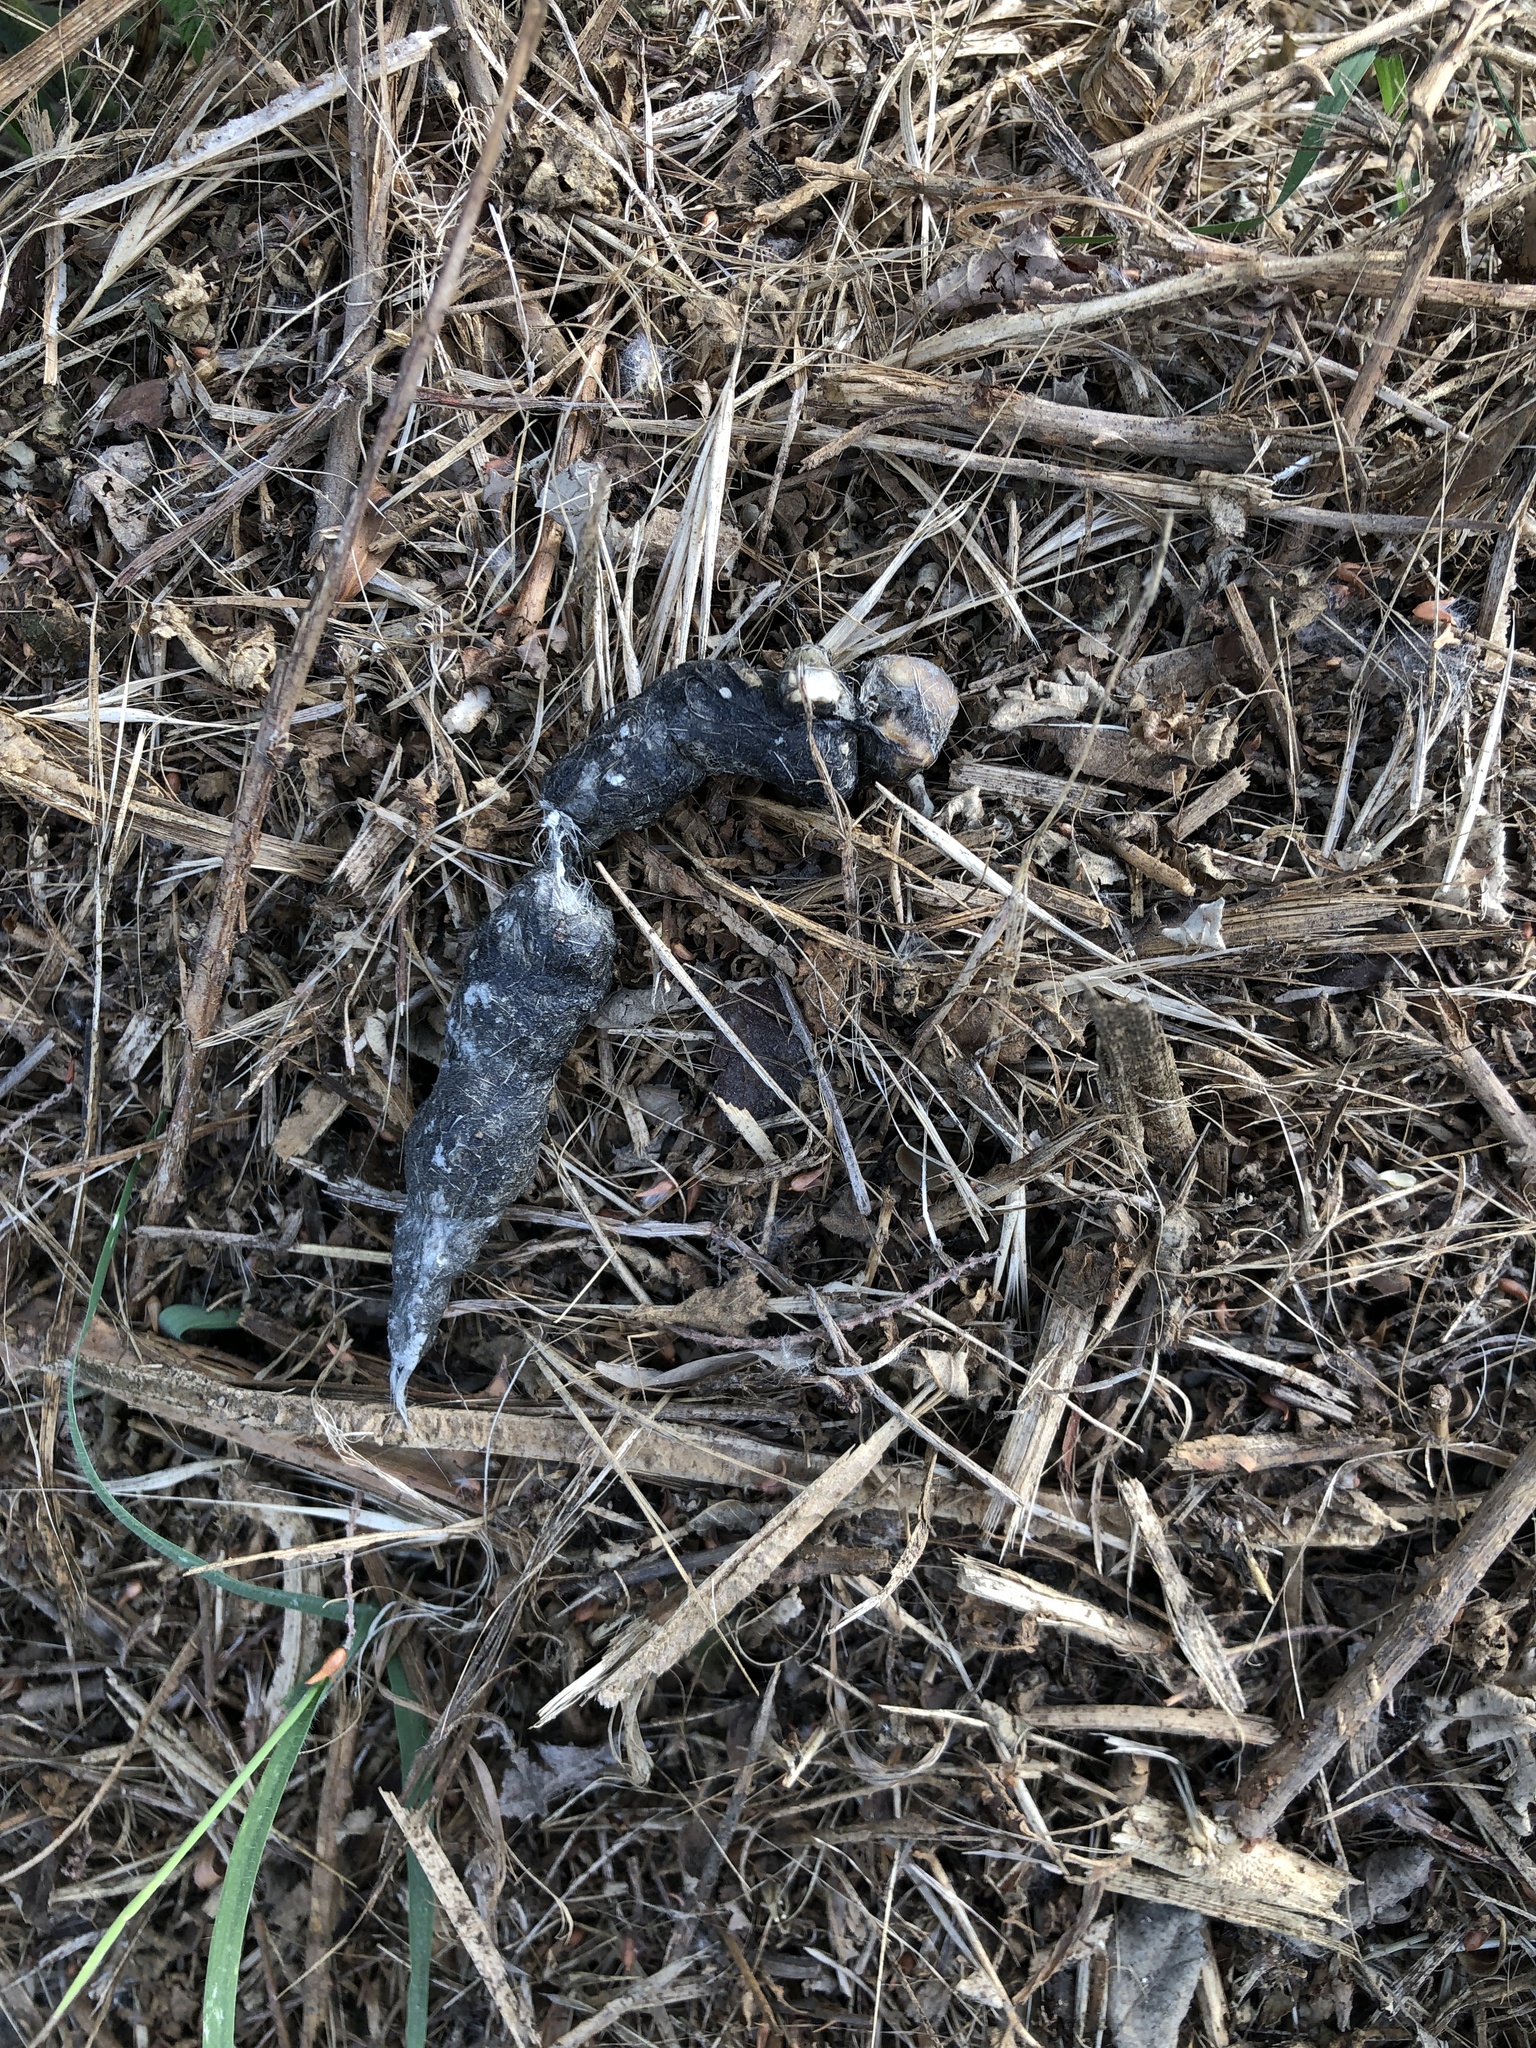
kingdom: Animalia
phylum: Chordata
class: Mammalia
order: Carnivora
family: Canidae
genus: Vulpes
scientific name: Vulpes vulpes
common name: Red fox
